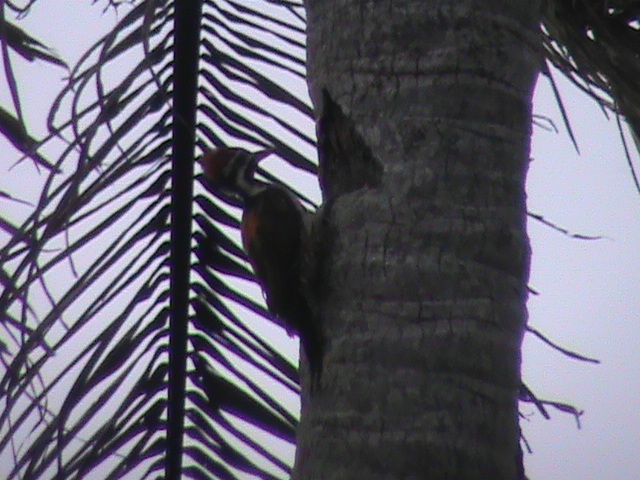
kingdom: Animalia
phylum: Chordata
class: Aves
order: Piciformes
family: Picidae
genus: Dinopium
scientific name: Dinopium benghalense
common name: Black-rumped flameback
